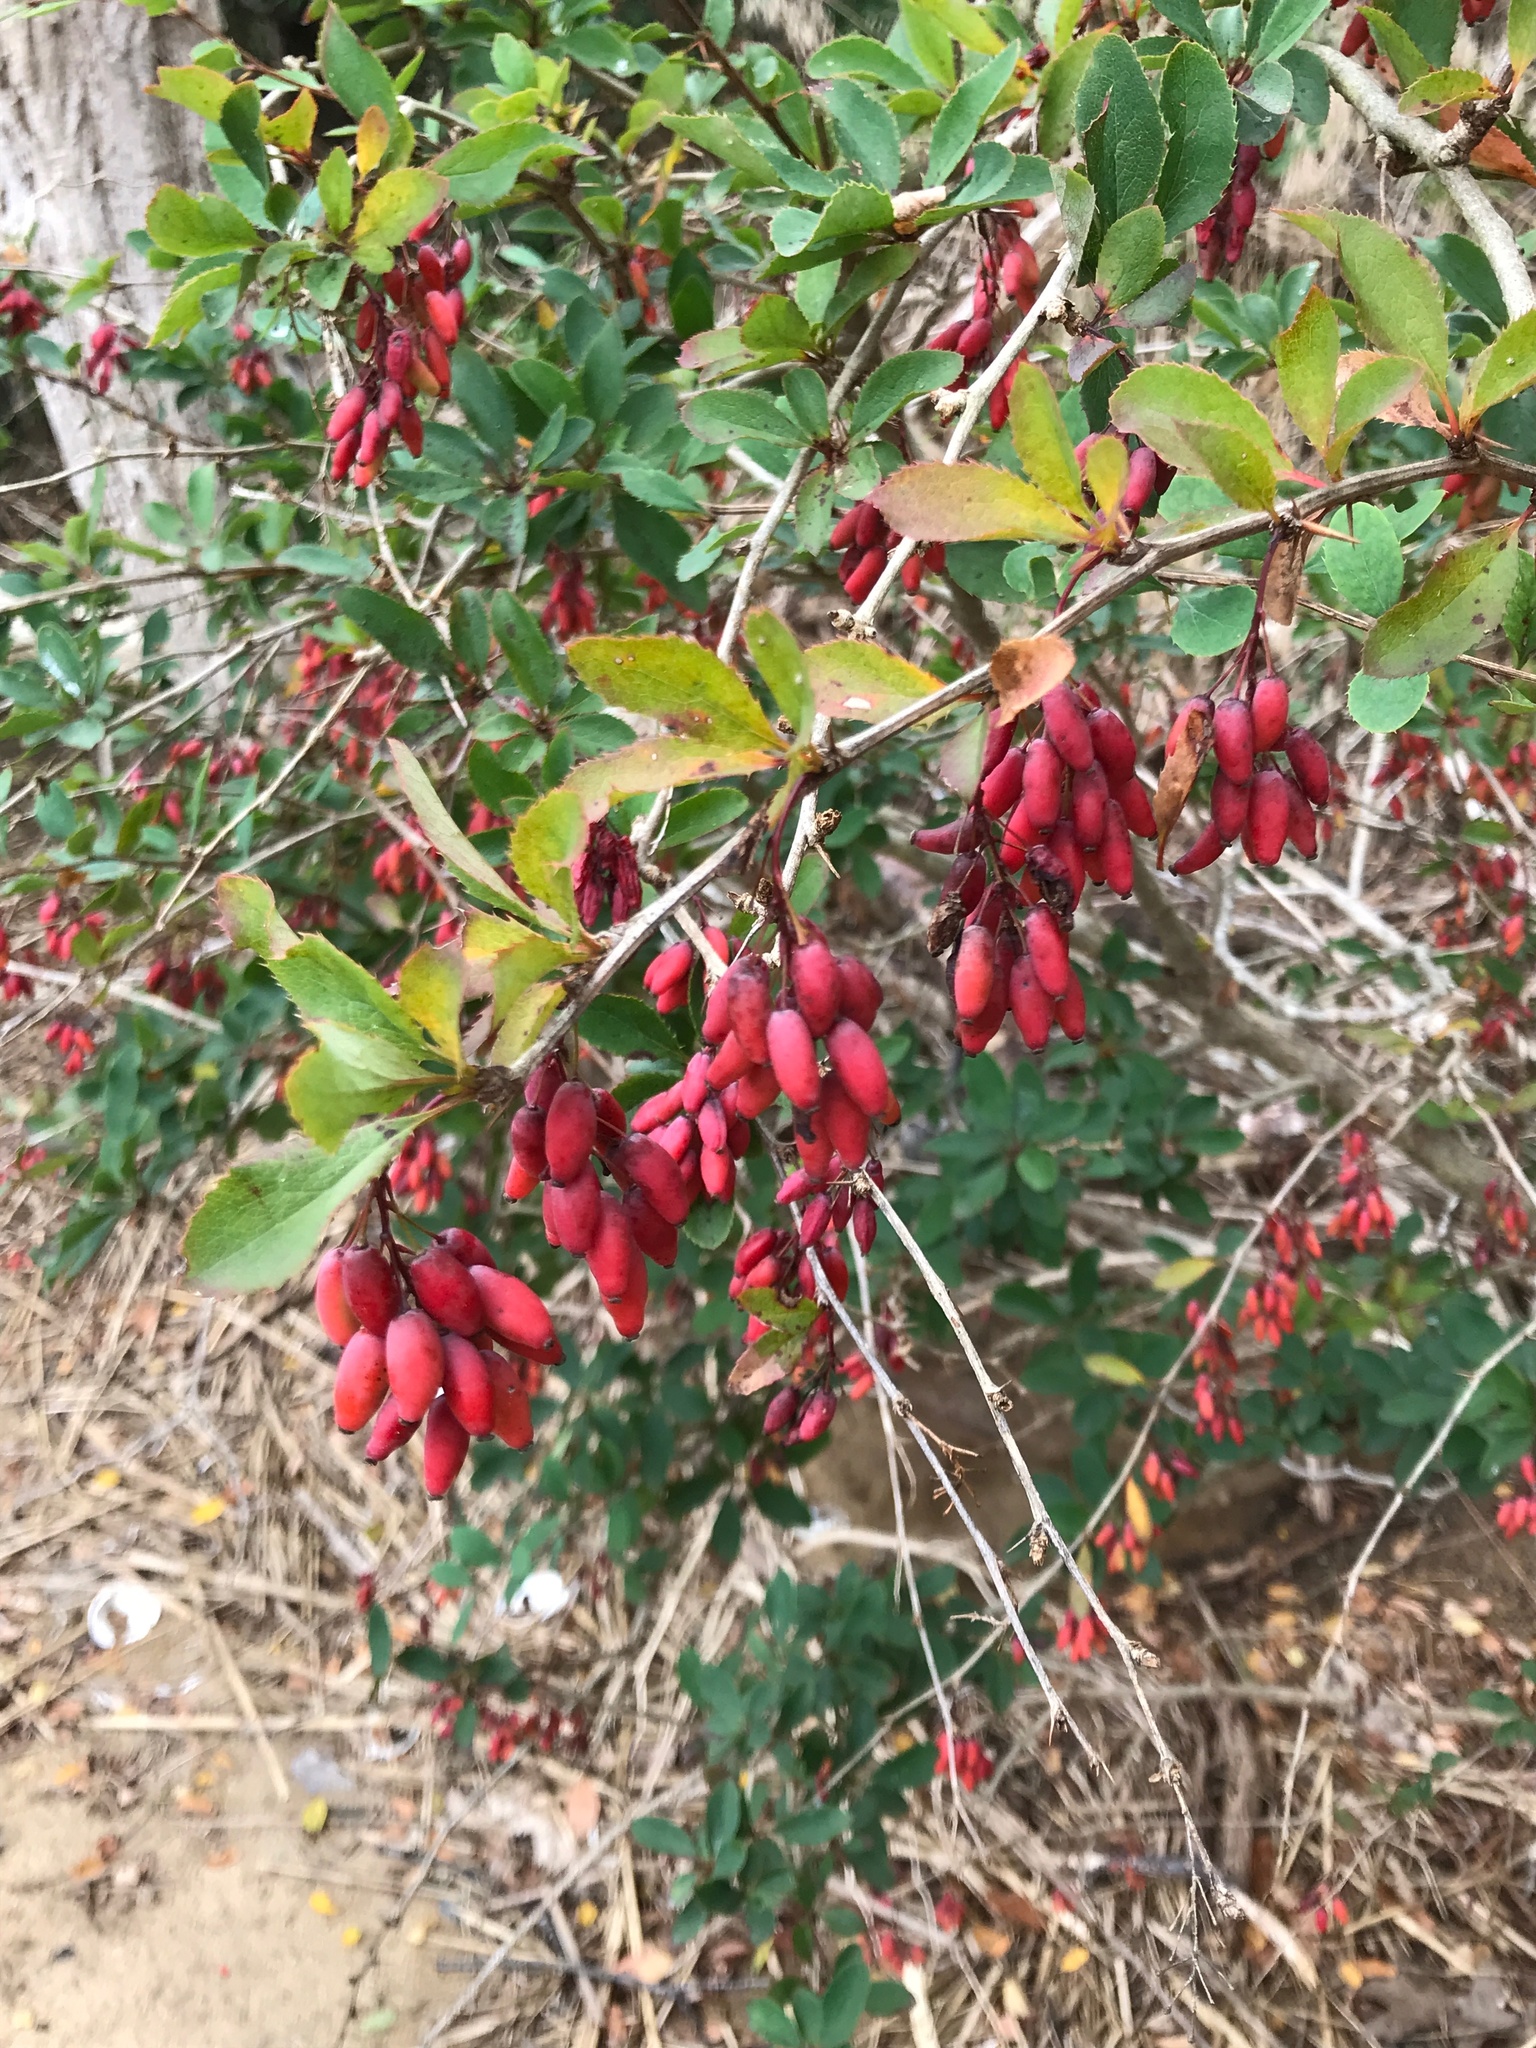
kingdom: Plantae
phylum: Tracheophyta
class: Magnoliopsida
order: Ranunculales
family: Berberidaceae
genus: Berberis
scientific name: Berberis vulgaris
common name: Barberry
